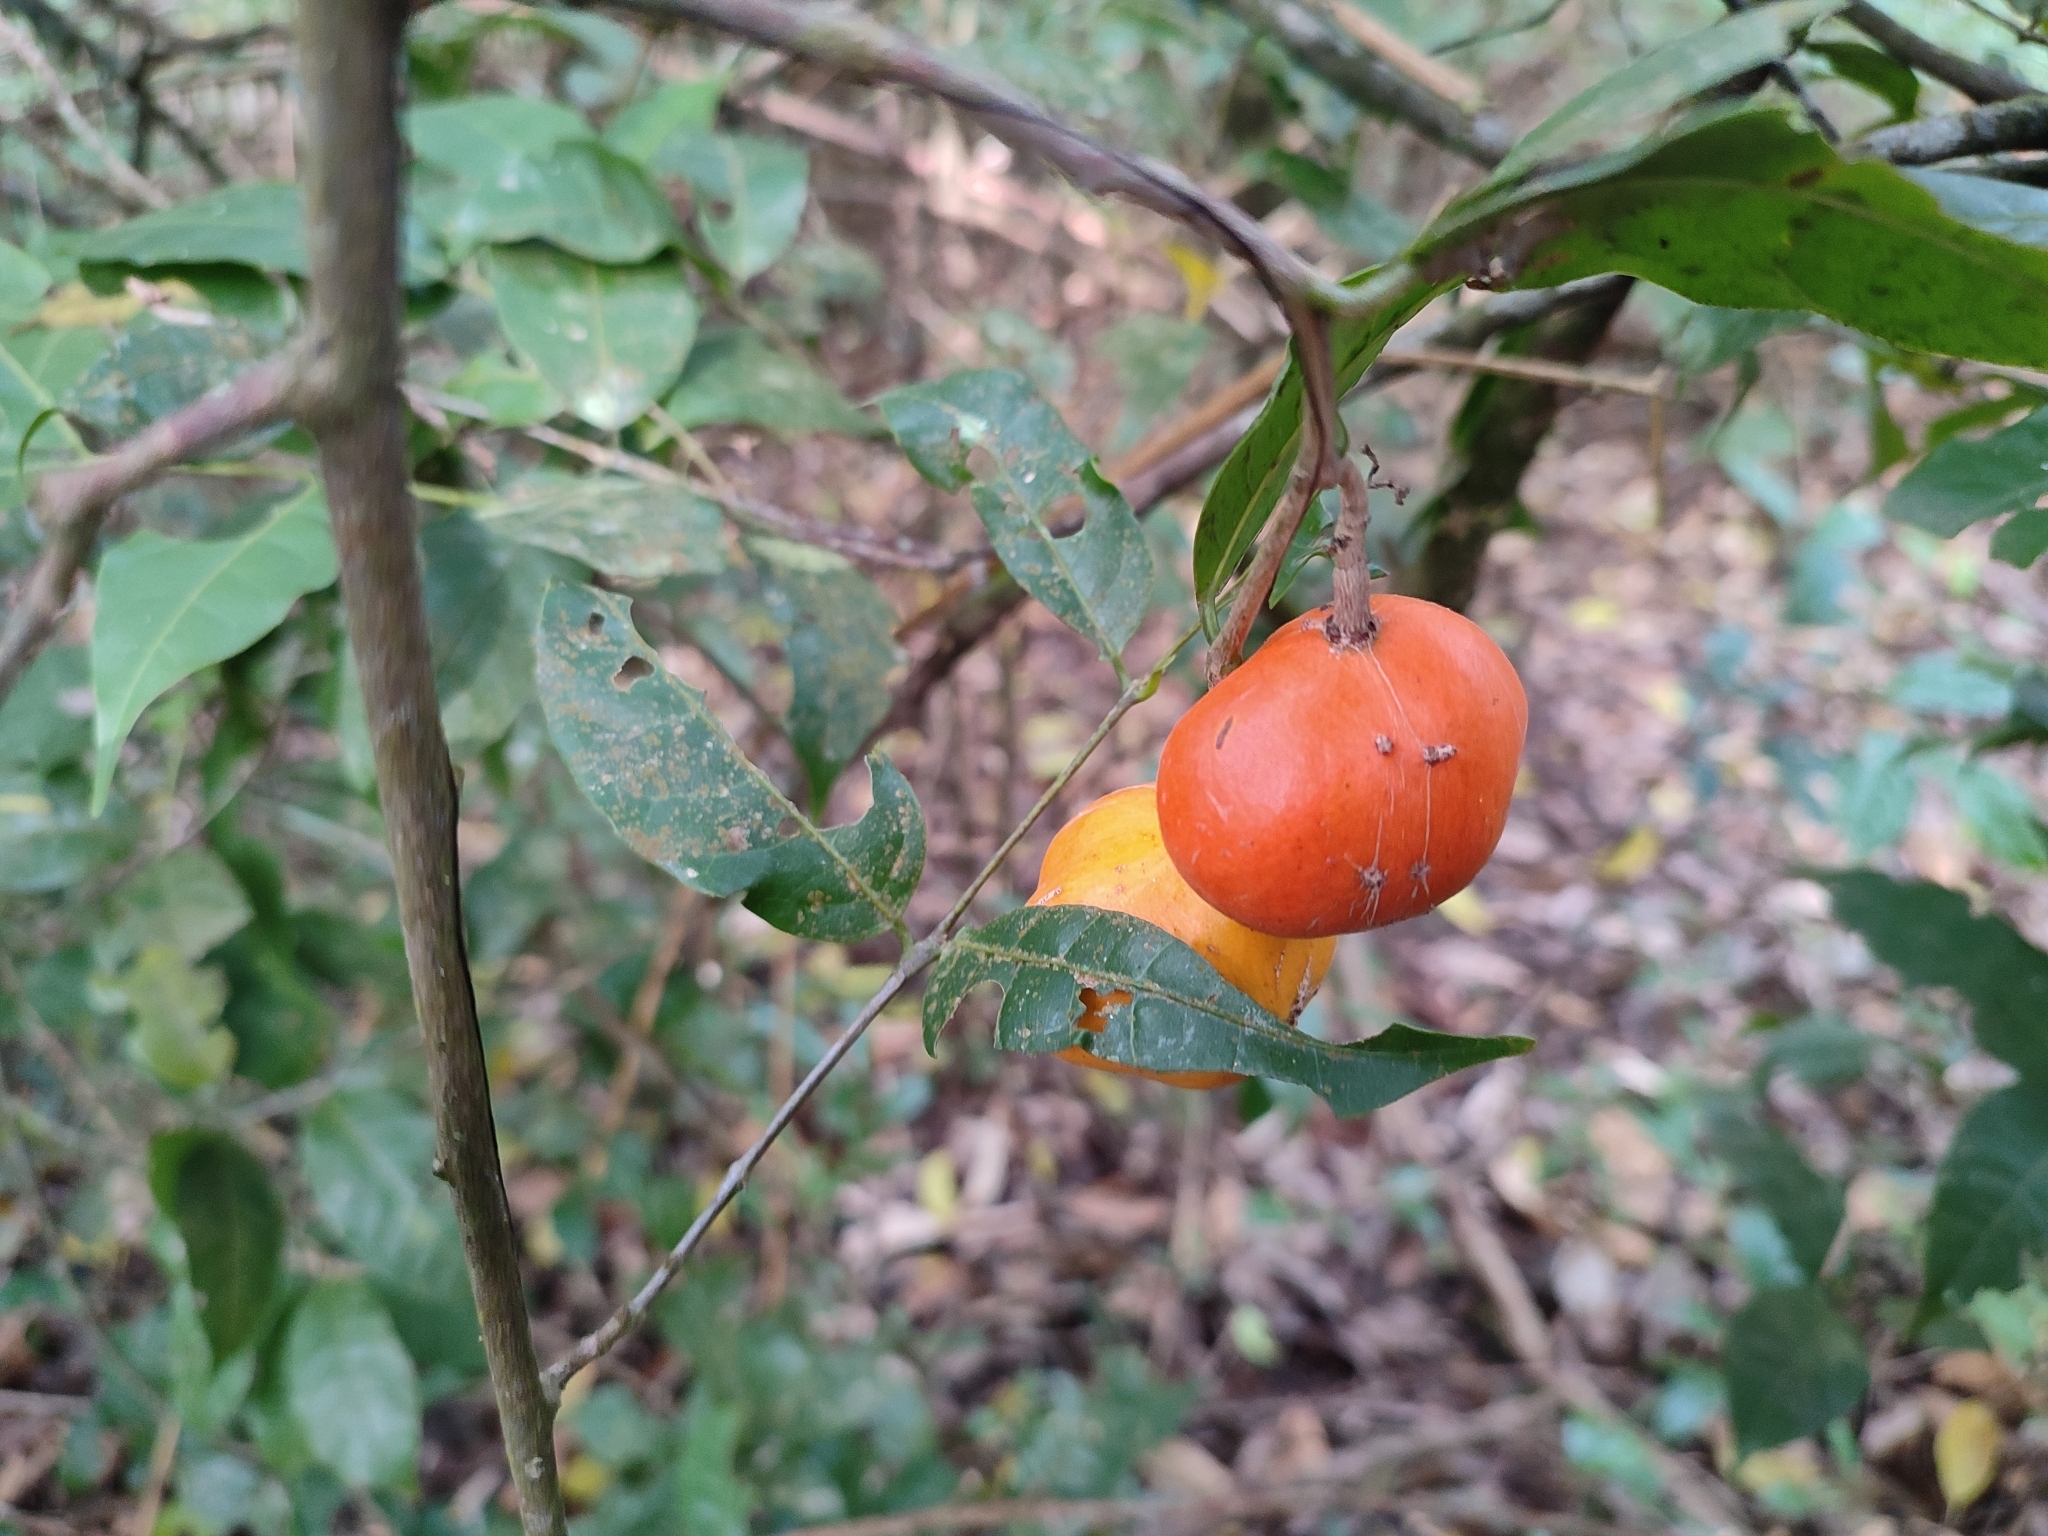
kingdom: Plantae
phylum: Tracheophyta
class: Magnoliopsida
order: Celastrales
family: Celastraceae
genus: Salacia
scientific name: Salacia fruticosa
